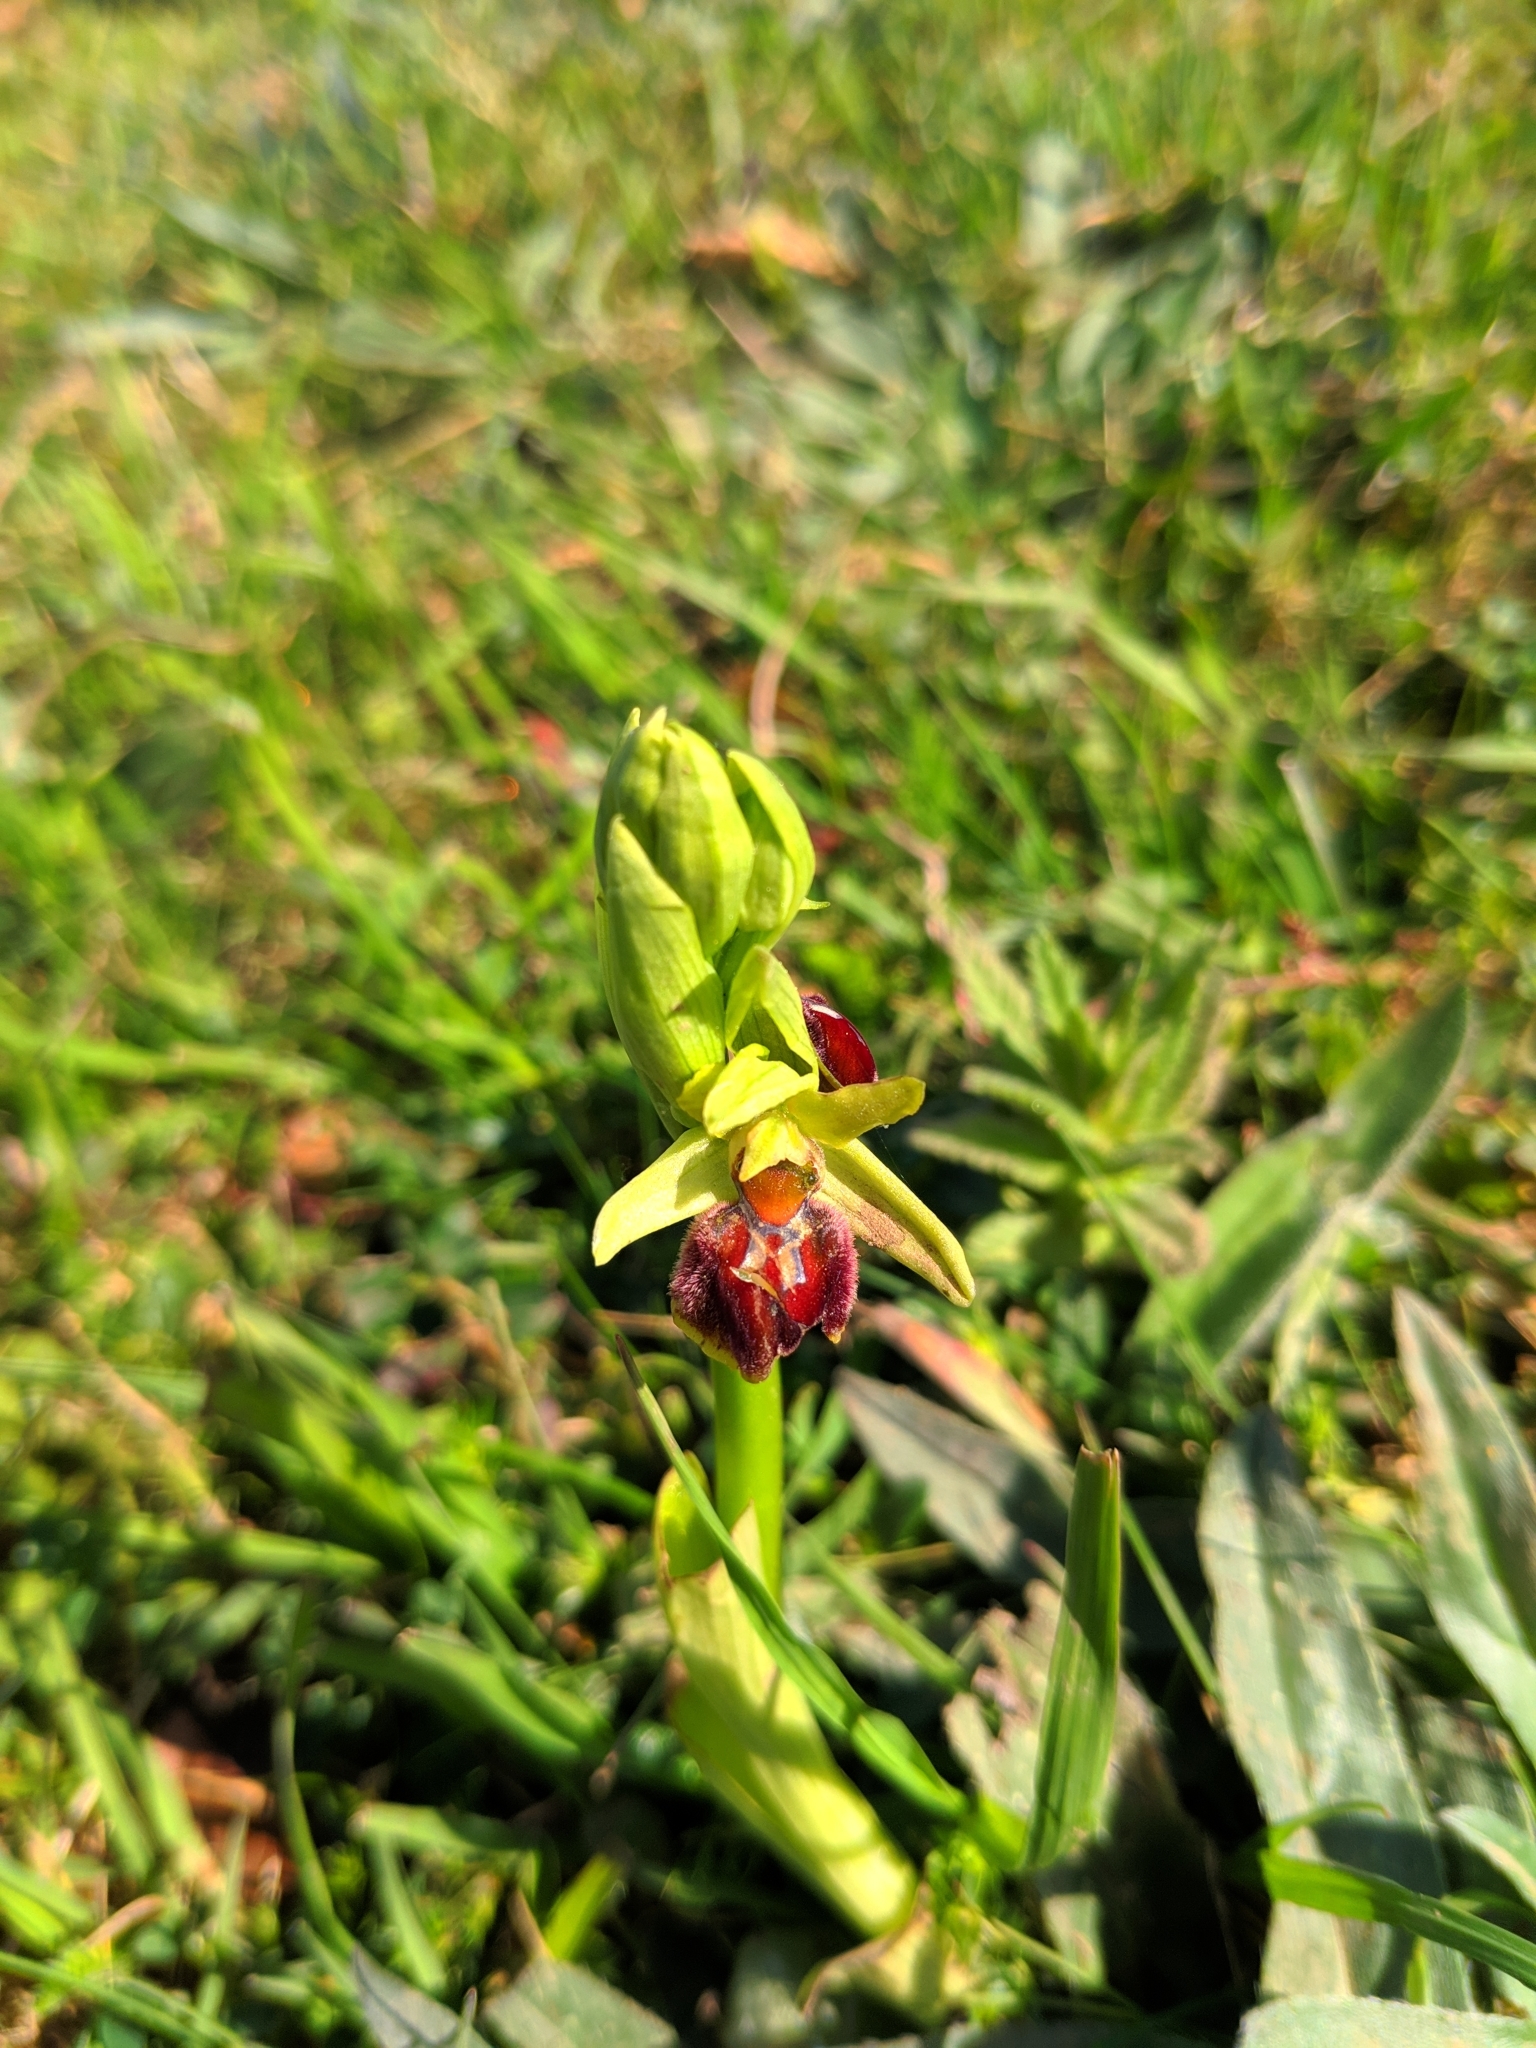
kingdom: Plantae
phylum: Tracheophyta
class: Liliopsida
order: Asparagales
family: Orchidaceae
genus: Ophrys
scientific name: Ophrys sphegodes
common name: Early spider-orchid
